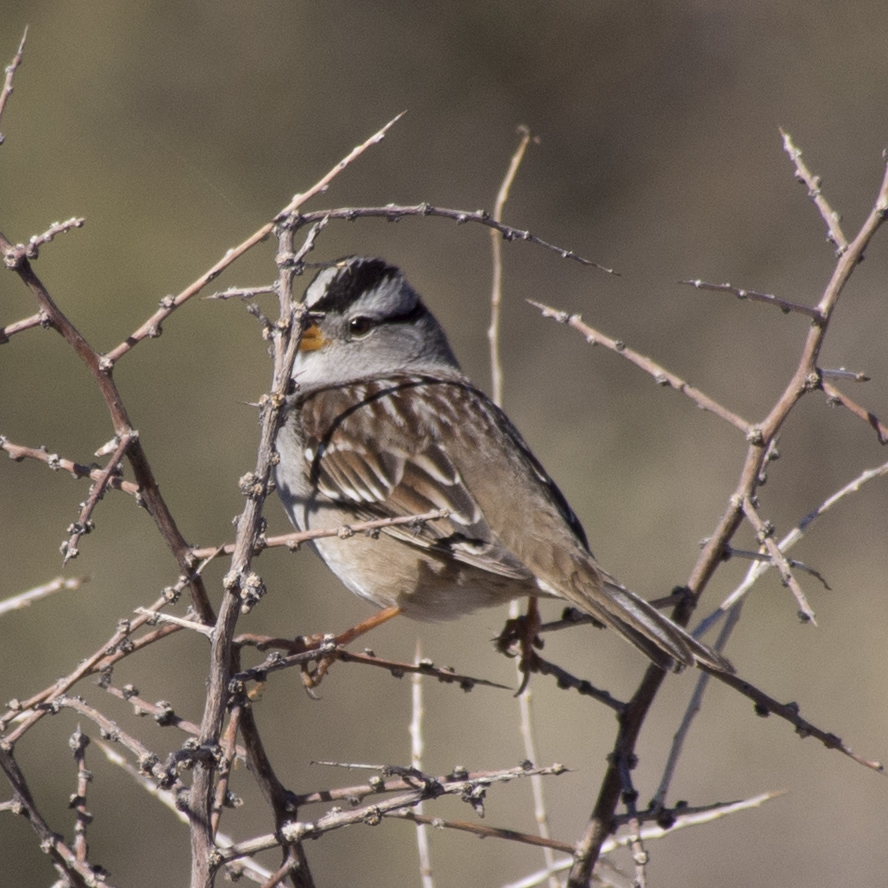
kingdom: Animalia
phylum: Chordata
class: Aves
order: Passeriformes
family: Passerellidae
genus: Zonotrichia
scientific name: Zonotrichia leucophrys
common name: White-crowned sparrow
